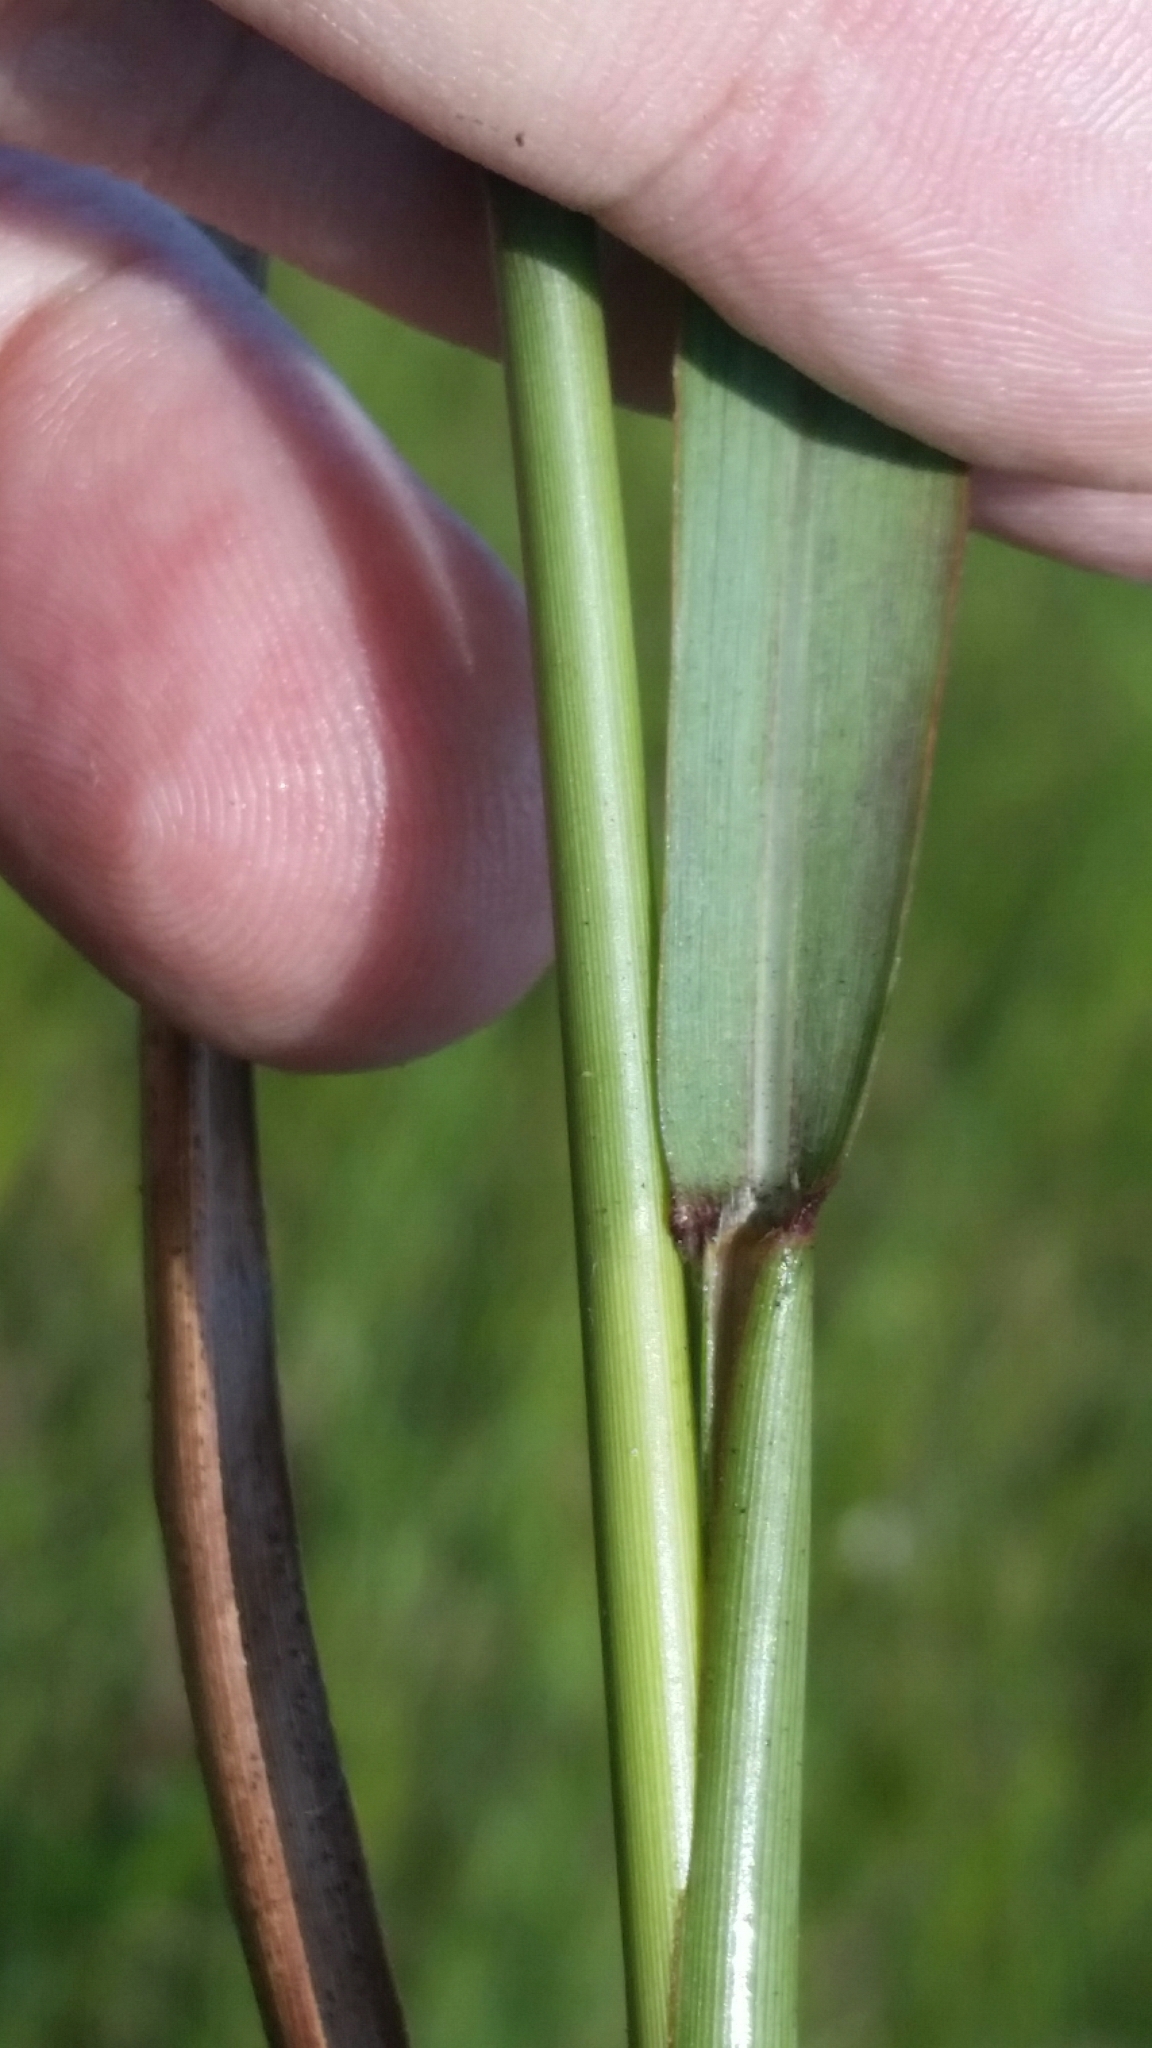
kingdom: Plantae
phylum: Tracheophyta
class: Liliopsida
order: Poales
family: Poaceae
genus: Panicum
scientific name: Panicum virgatum
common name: Switchgrass
